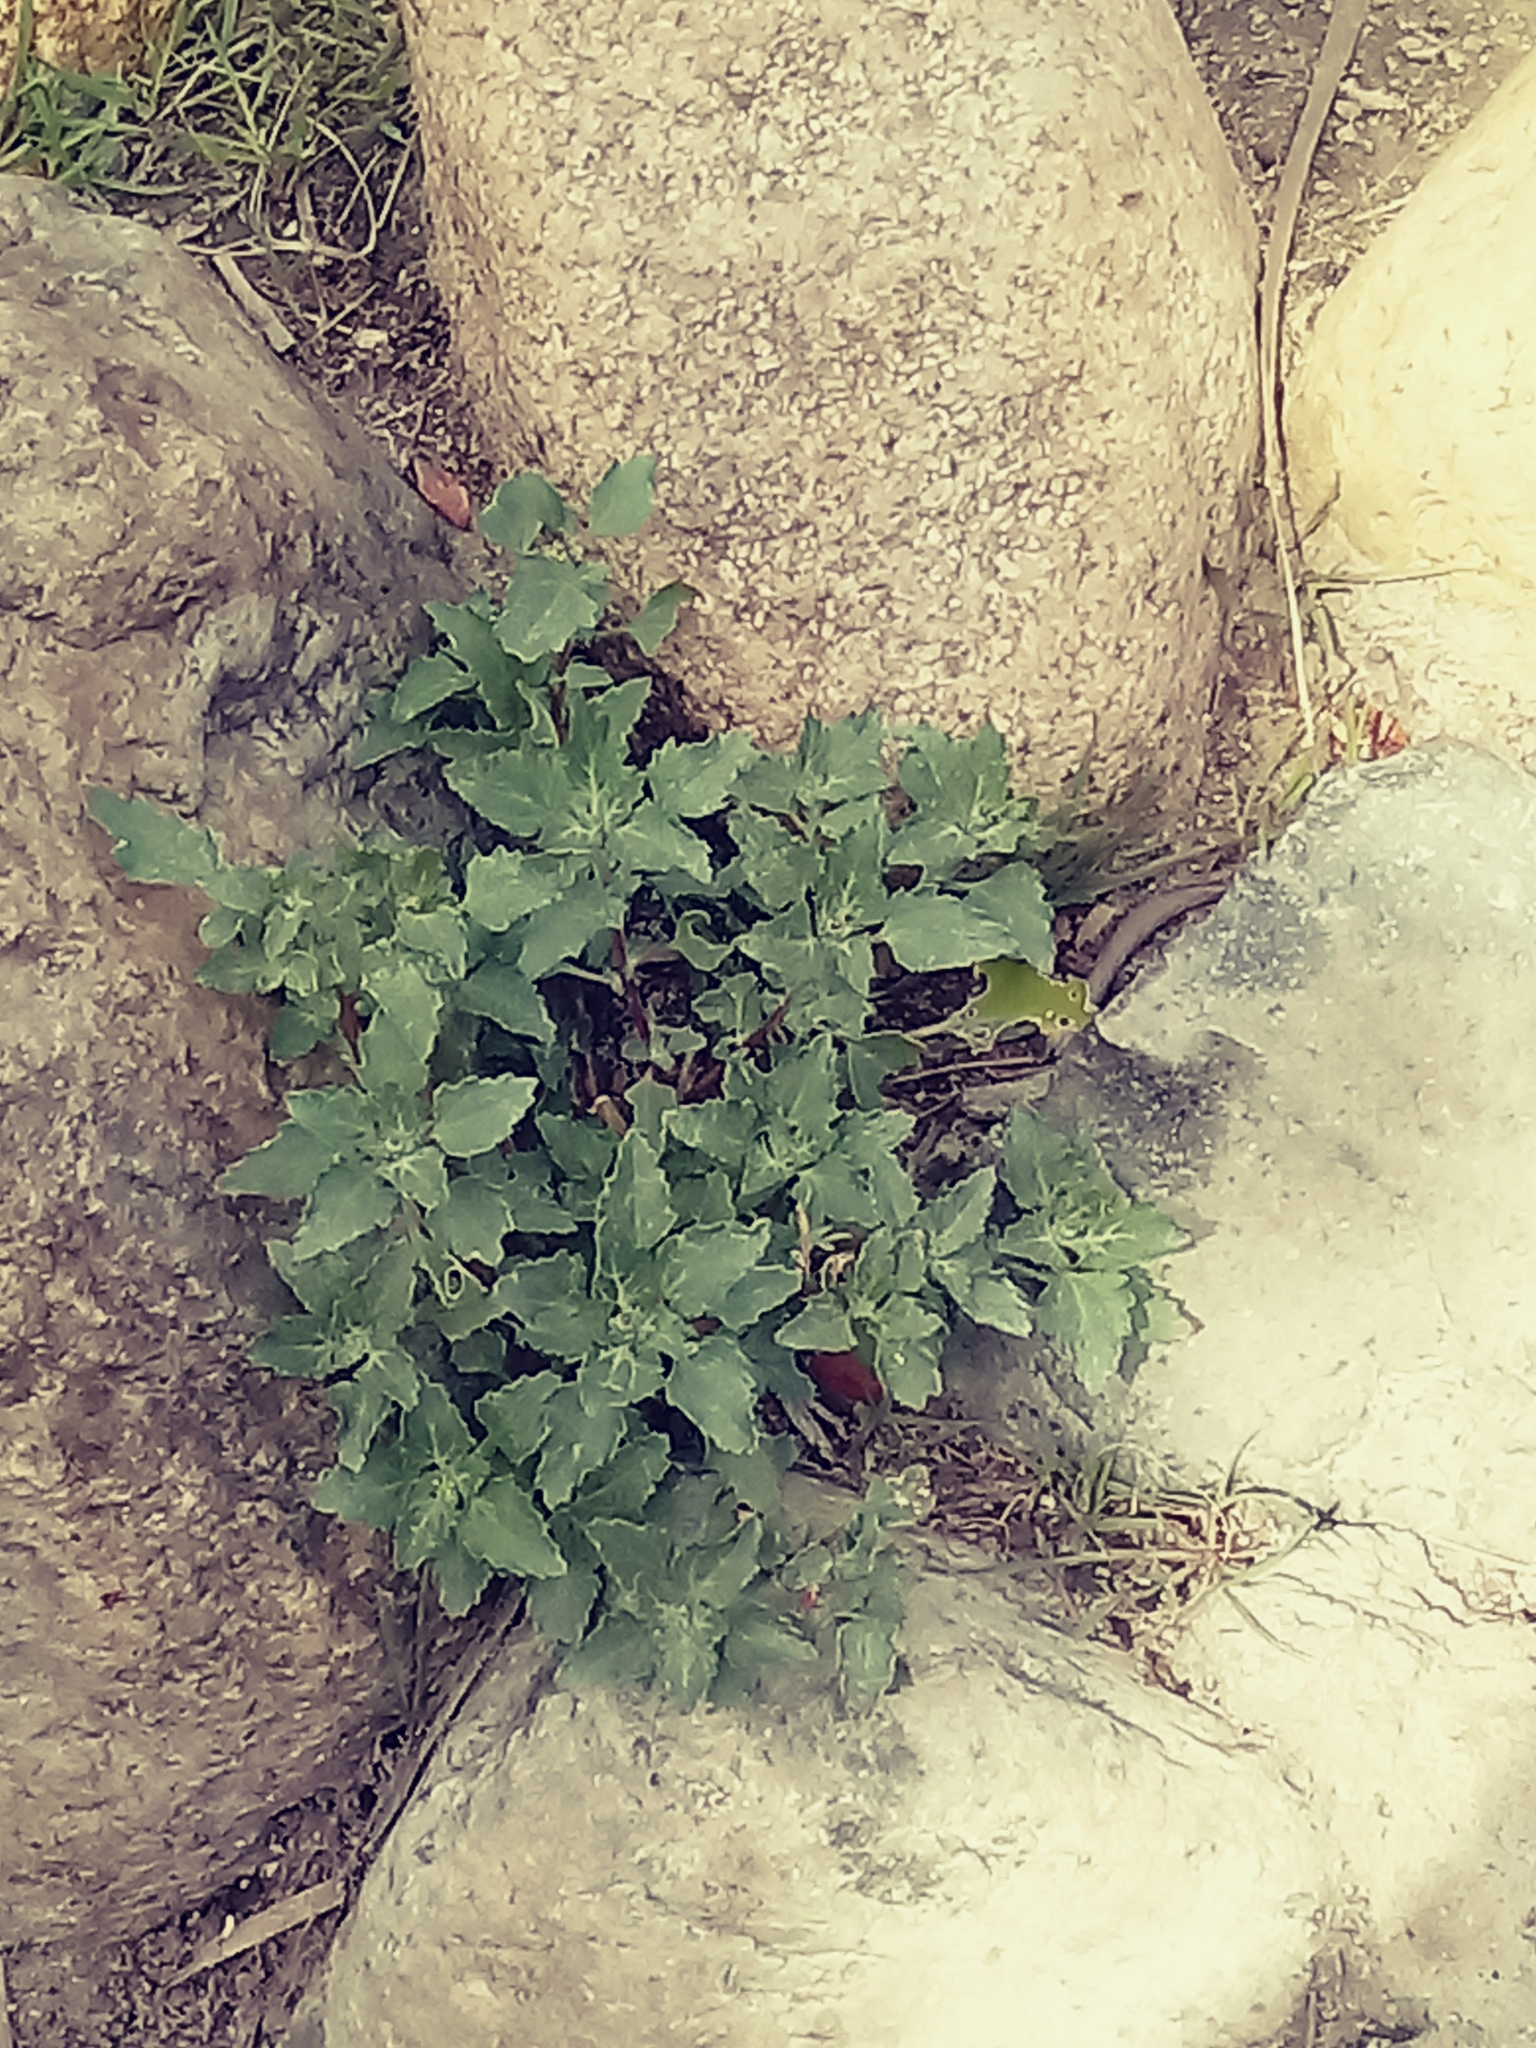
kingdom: Plantae
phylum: Tracheophyta
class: Magnoliopsida
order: Caryophyllales
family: Amaranthaceae
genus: Chenopodiastrum
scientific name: Chenopodiastrum murale
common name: Sowbane
